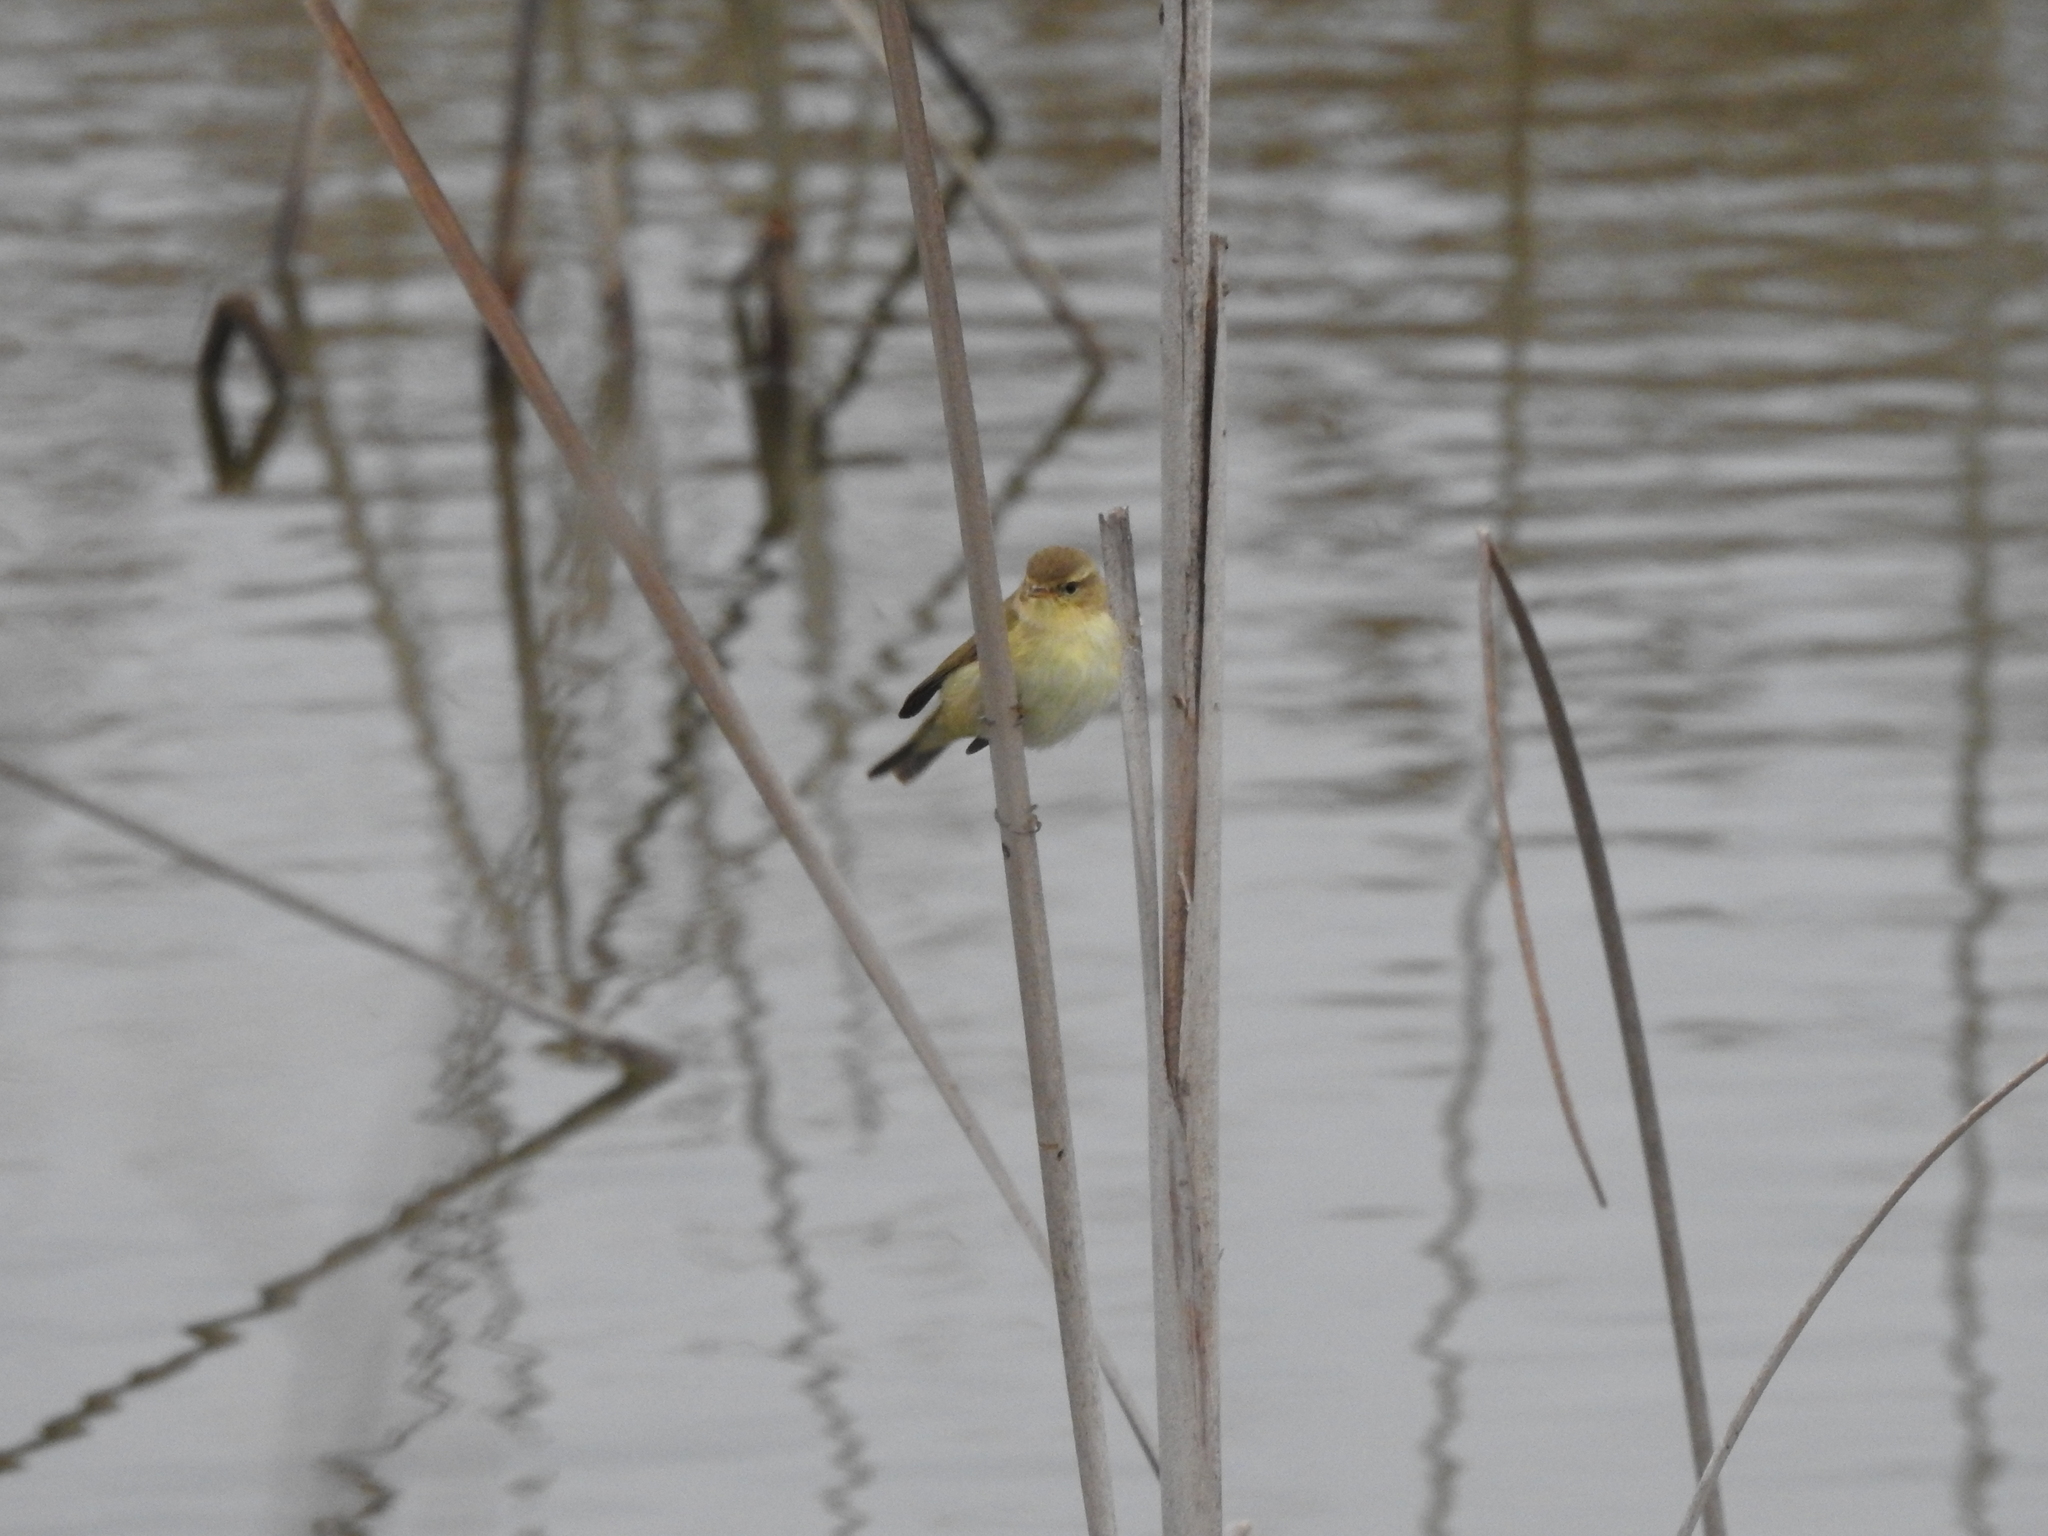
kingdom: Animalia
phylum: Chordata
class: Aves
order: Passeriformes
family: Phylloscopidae
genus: Phylloscopus
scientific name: Phylloscopus collybita
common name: Common chiffchaff
